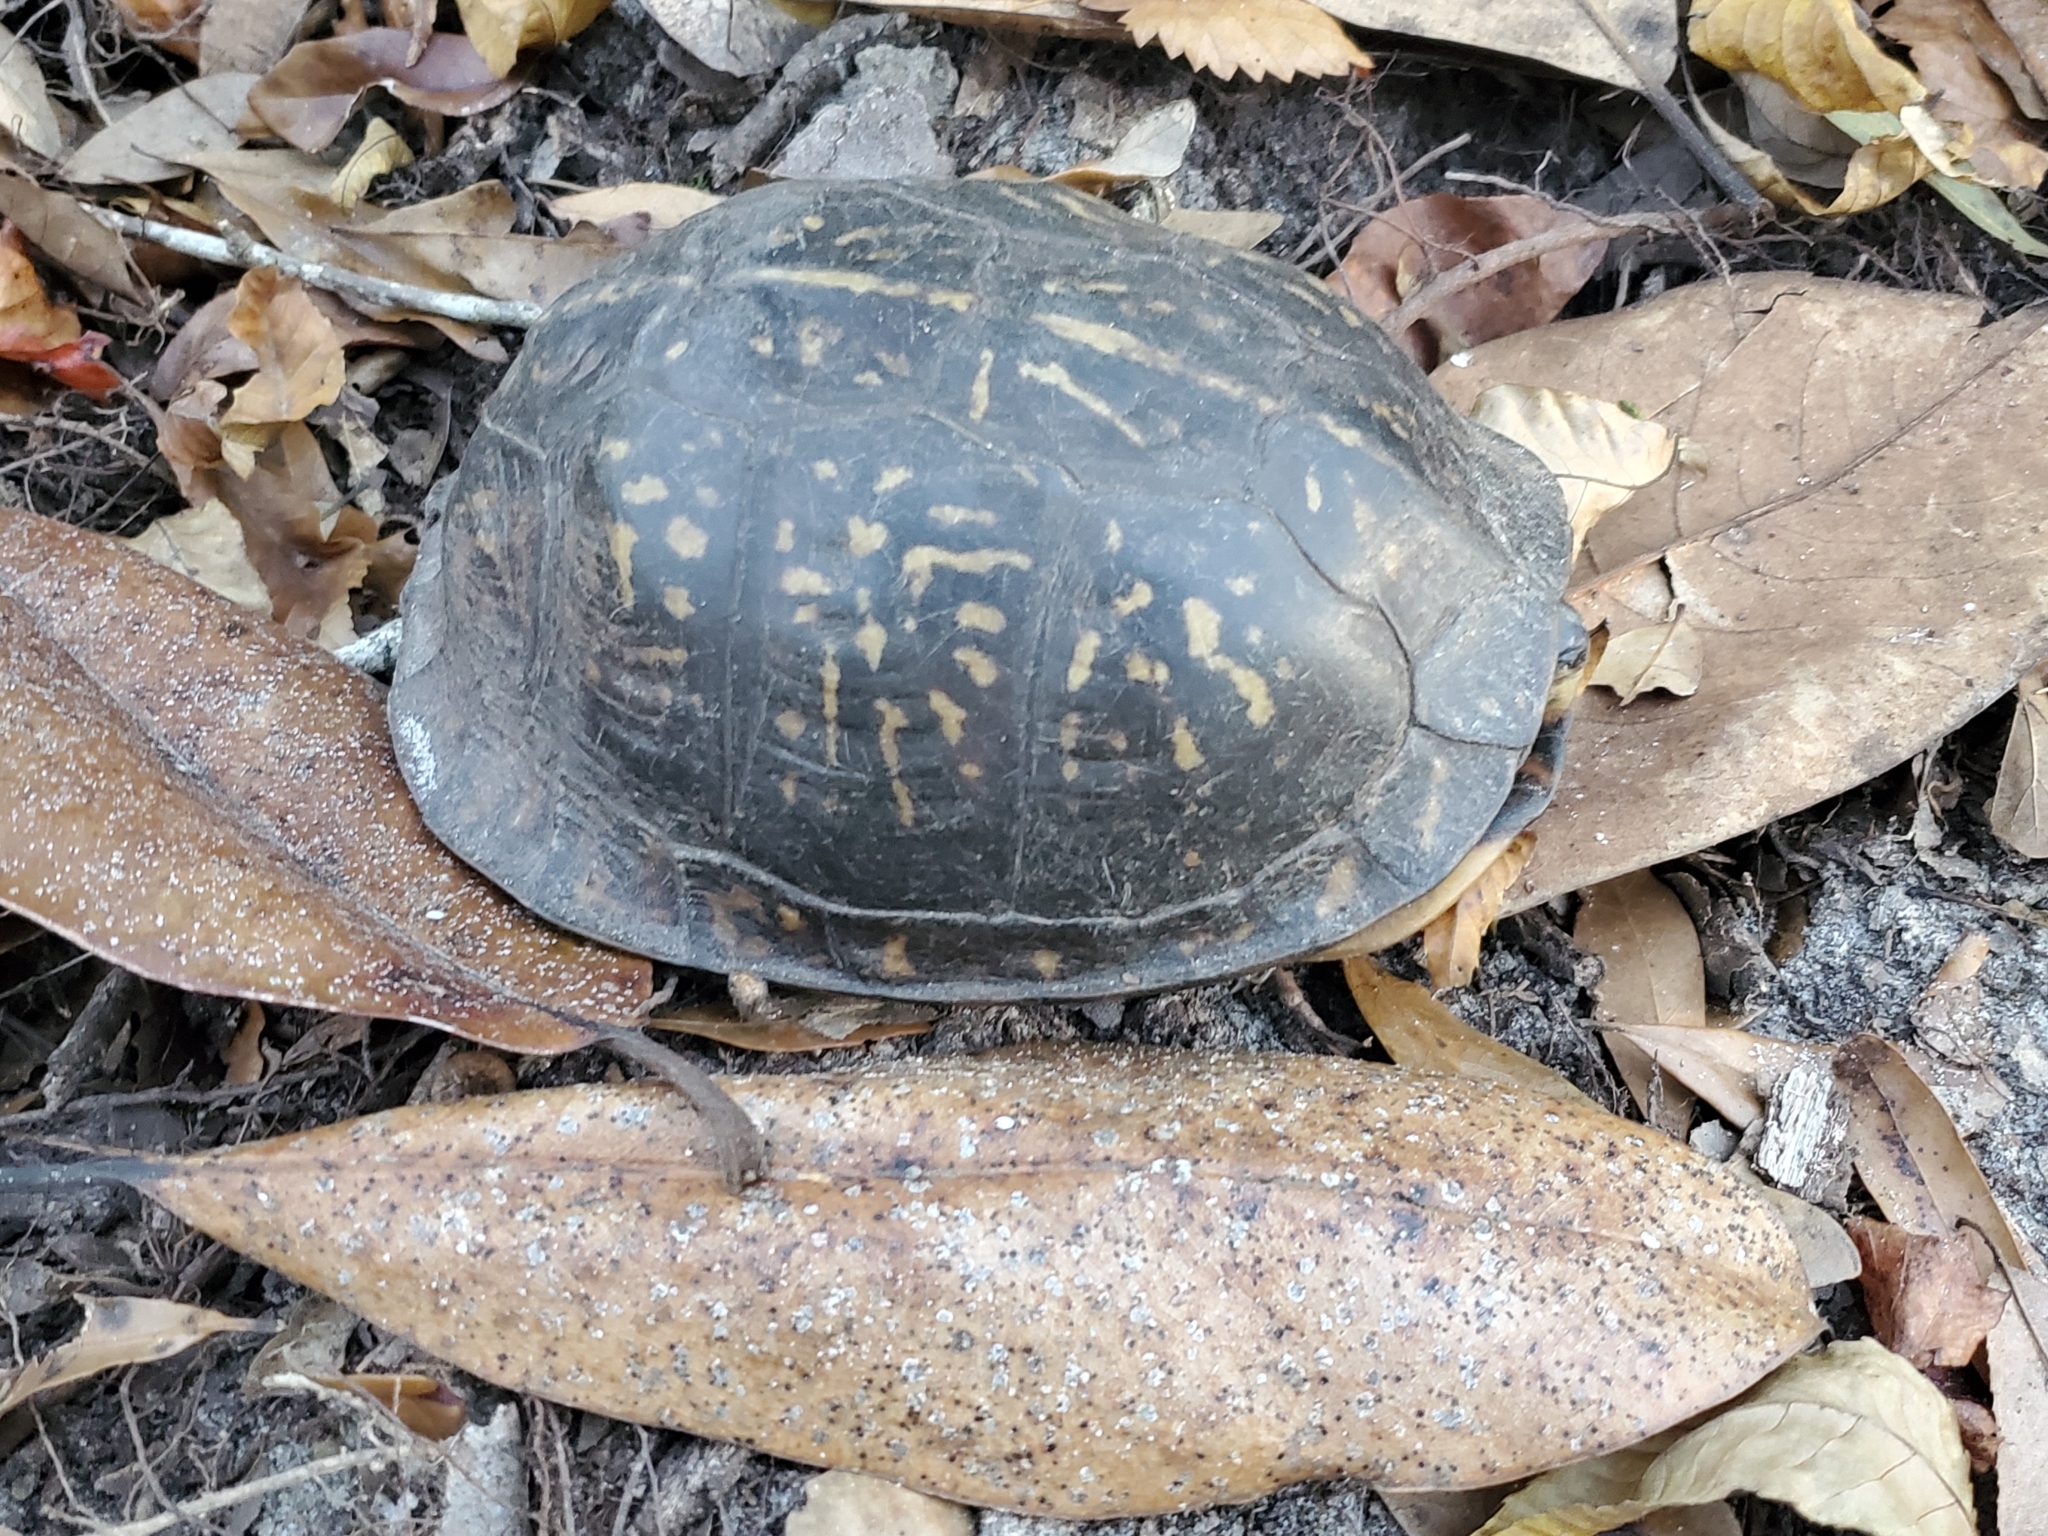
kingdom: Animalia
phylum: Chordata
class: Testudines
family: Emydidae
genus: Terrapene
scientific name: Terrapene carolina
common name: Common box turtle
